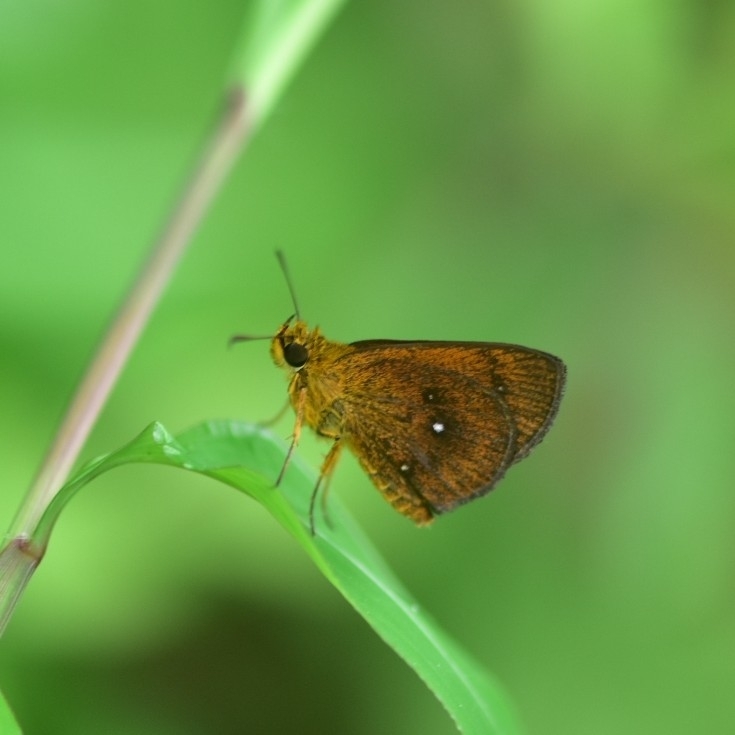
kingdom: Animalia
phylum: Arthropoda
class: Insecta
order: Lepidoptera
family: Hesperiidae
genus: Iambrix
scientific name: Iambrix salsala
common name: Chestnut bob
